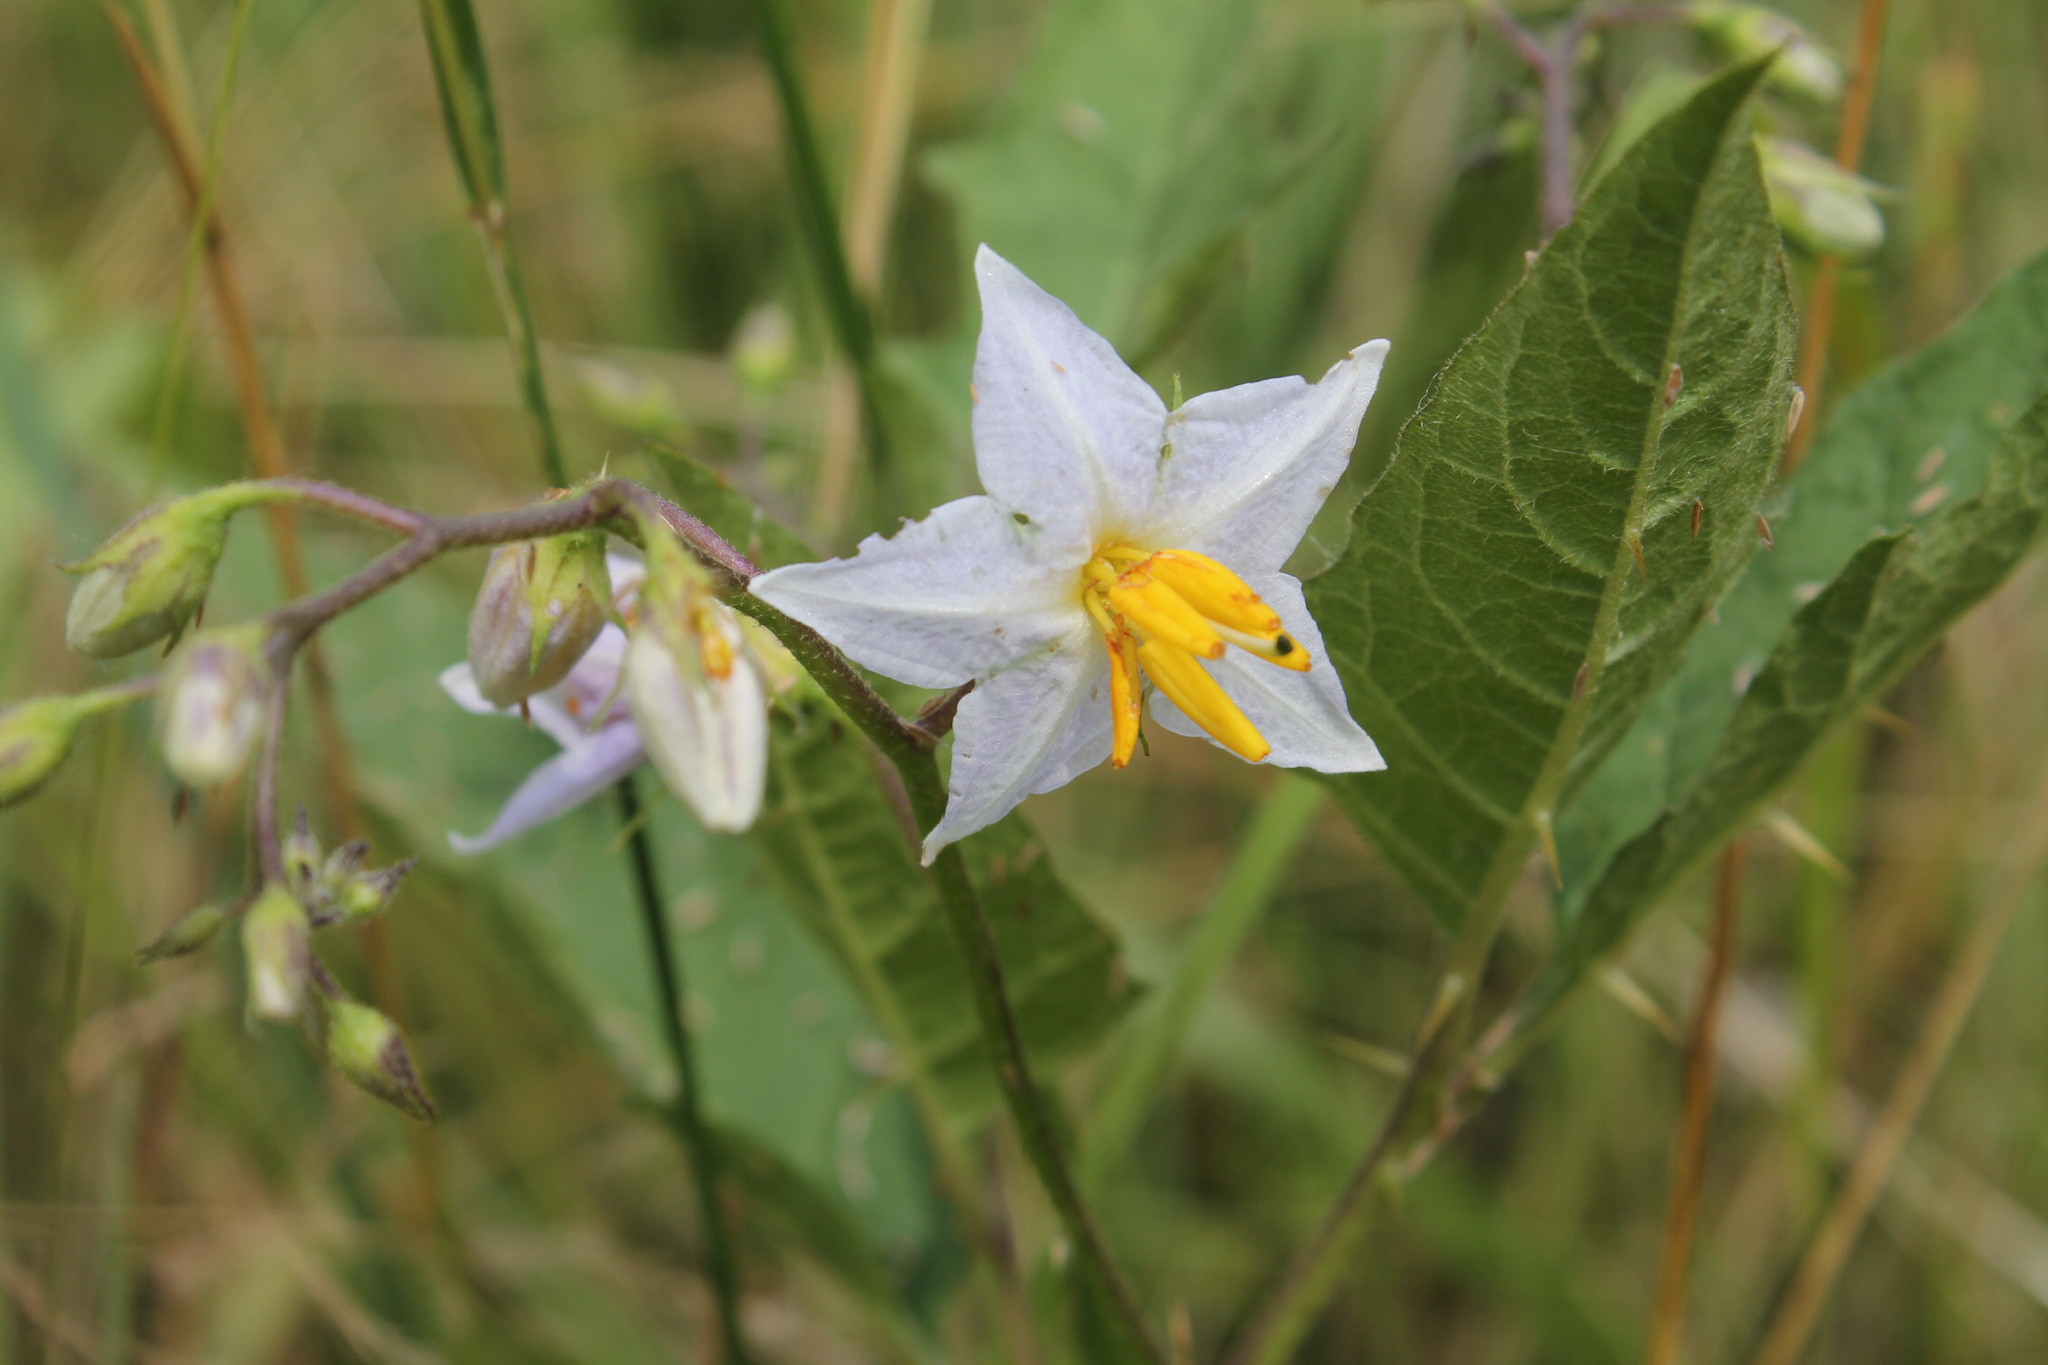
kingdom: Plantae
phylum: Tracheophyta
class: Magnoliopsida
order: Solanales
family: Solanaceae
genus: Solanum
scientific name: Solanum carolinense
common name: Horse-nettle
